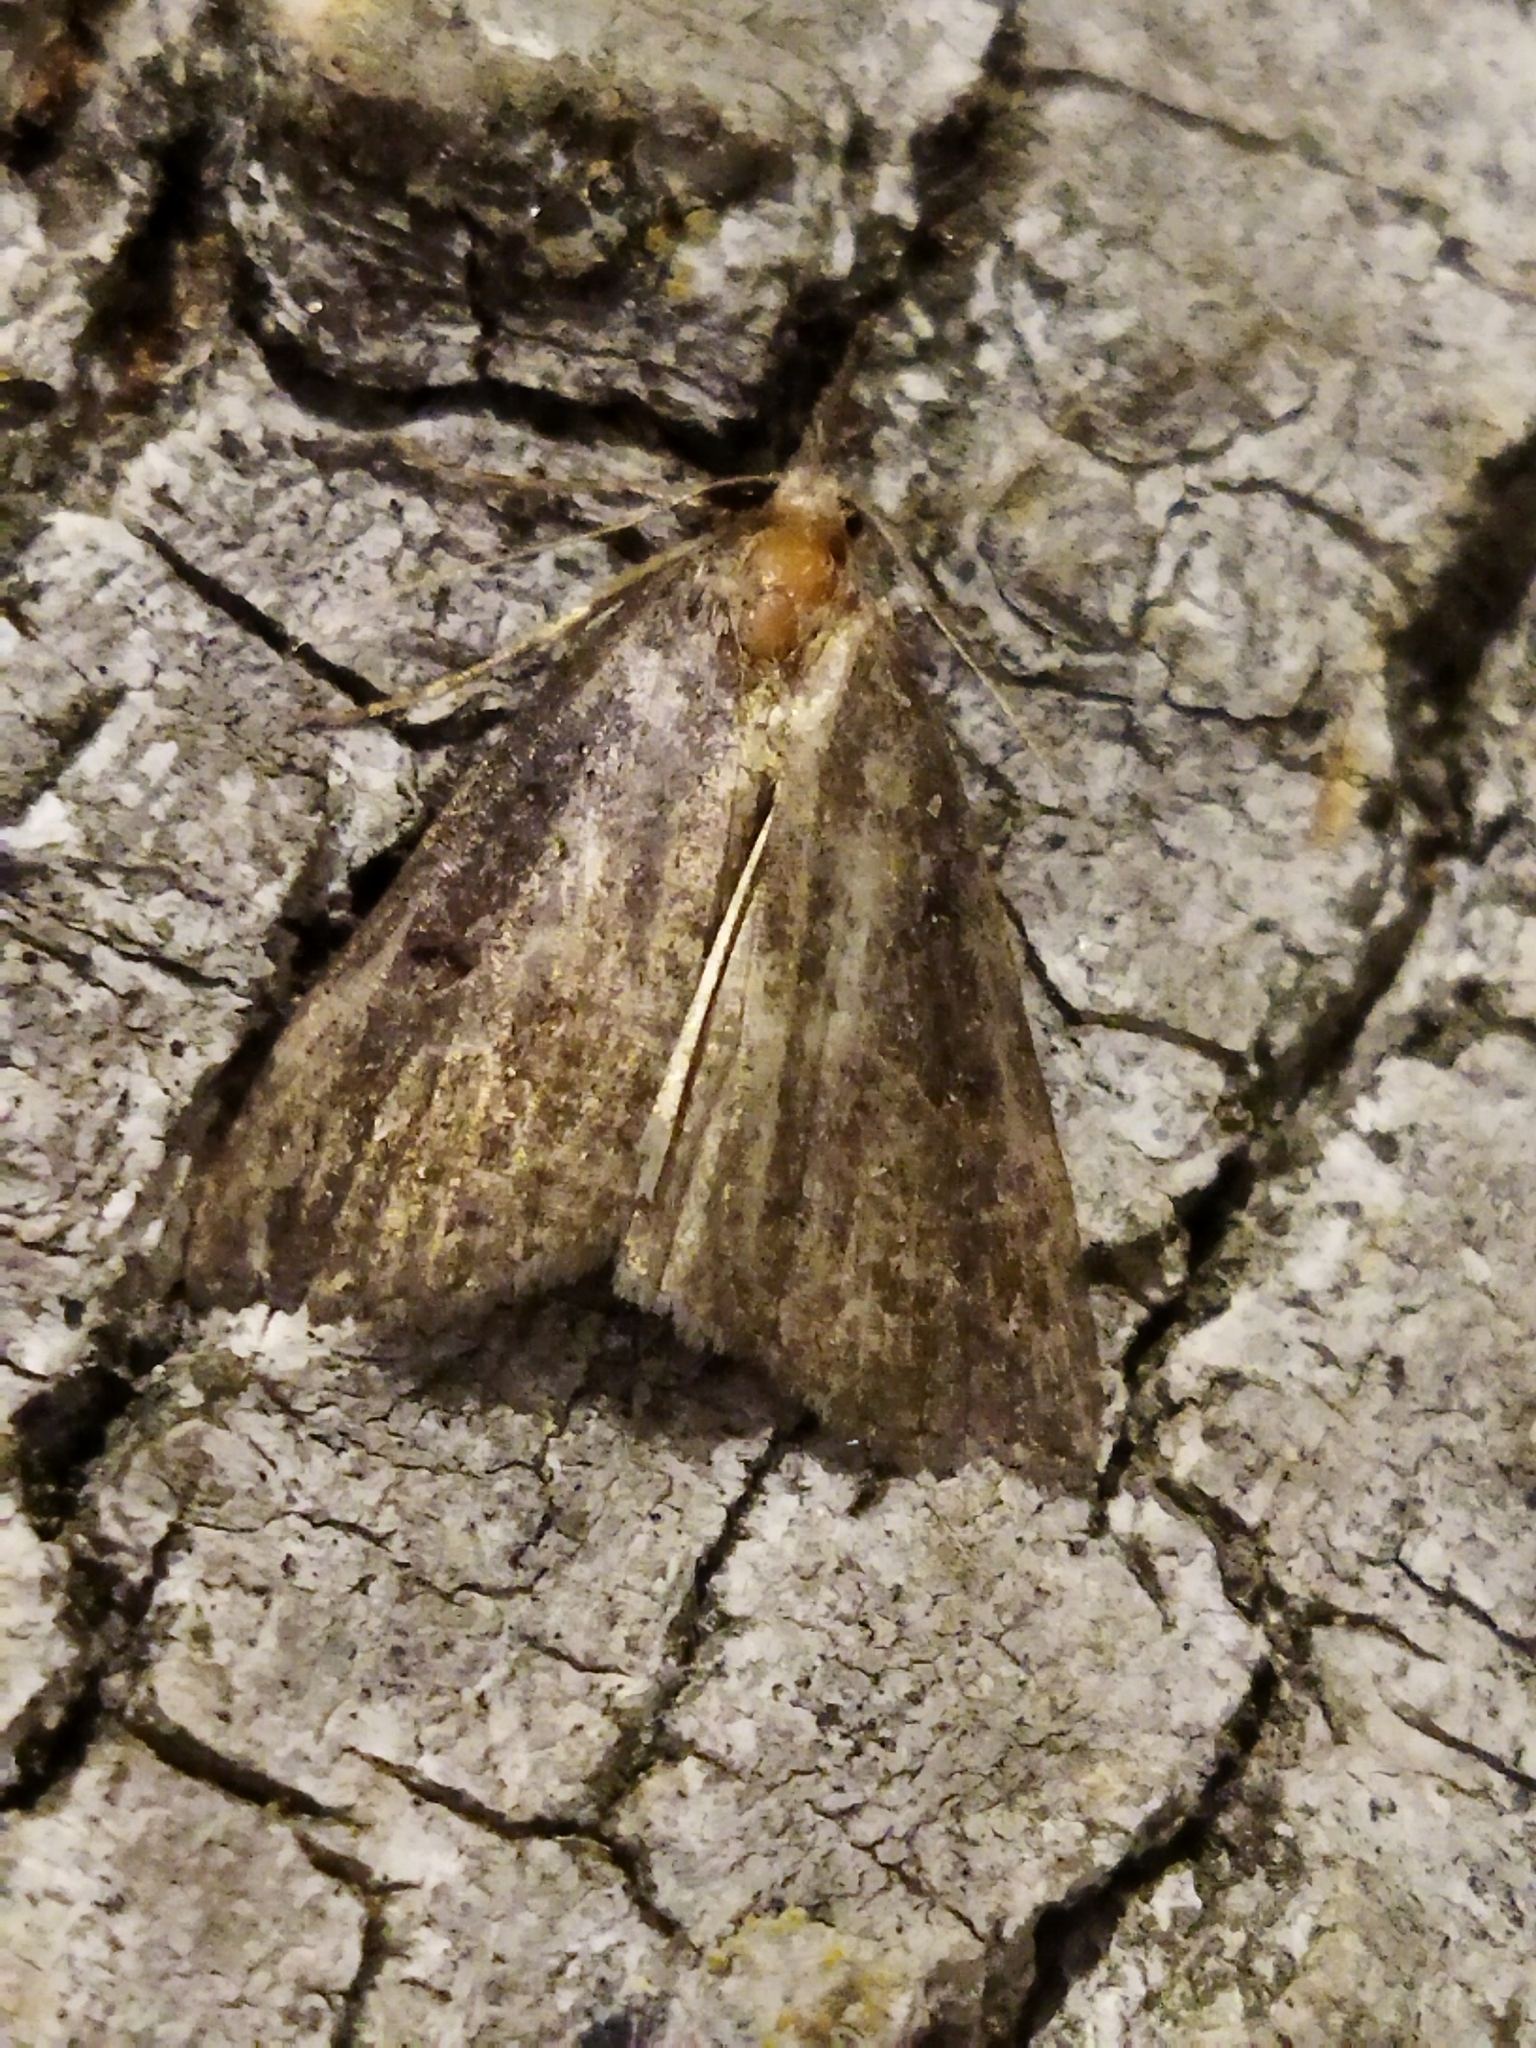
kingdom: Animalia
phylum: Arthropoda
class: Insecta
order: Lepidoptera
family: Erebidae
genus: Hypena
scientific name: Hypena rostralis
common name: Buttoned snout
